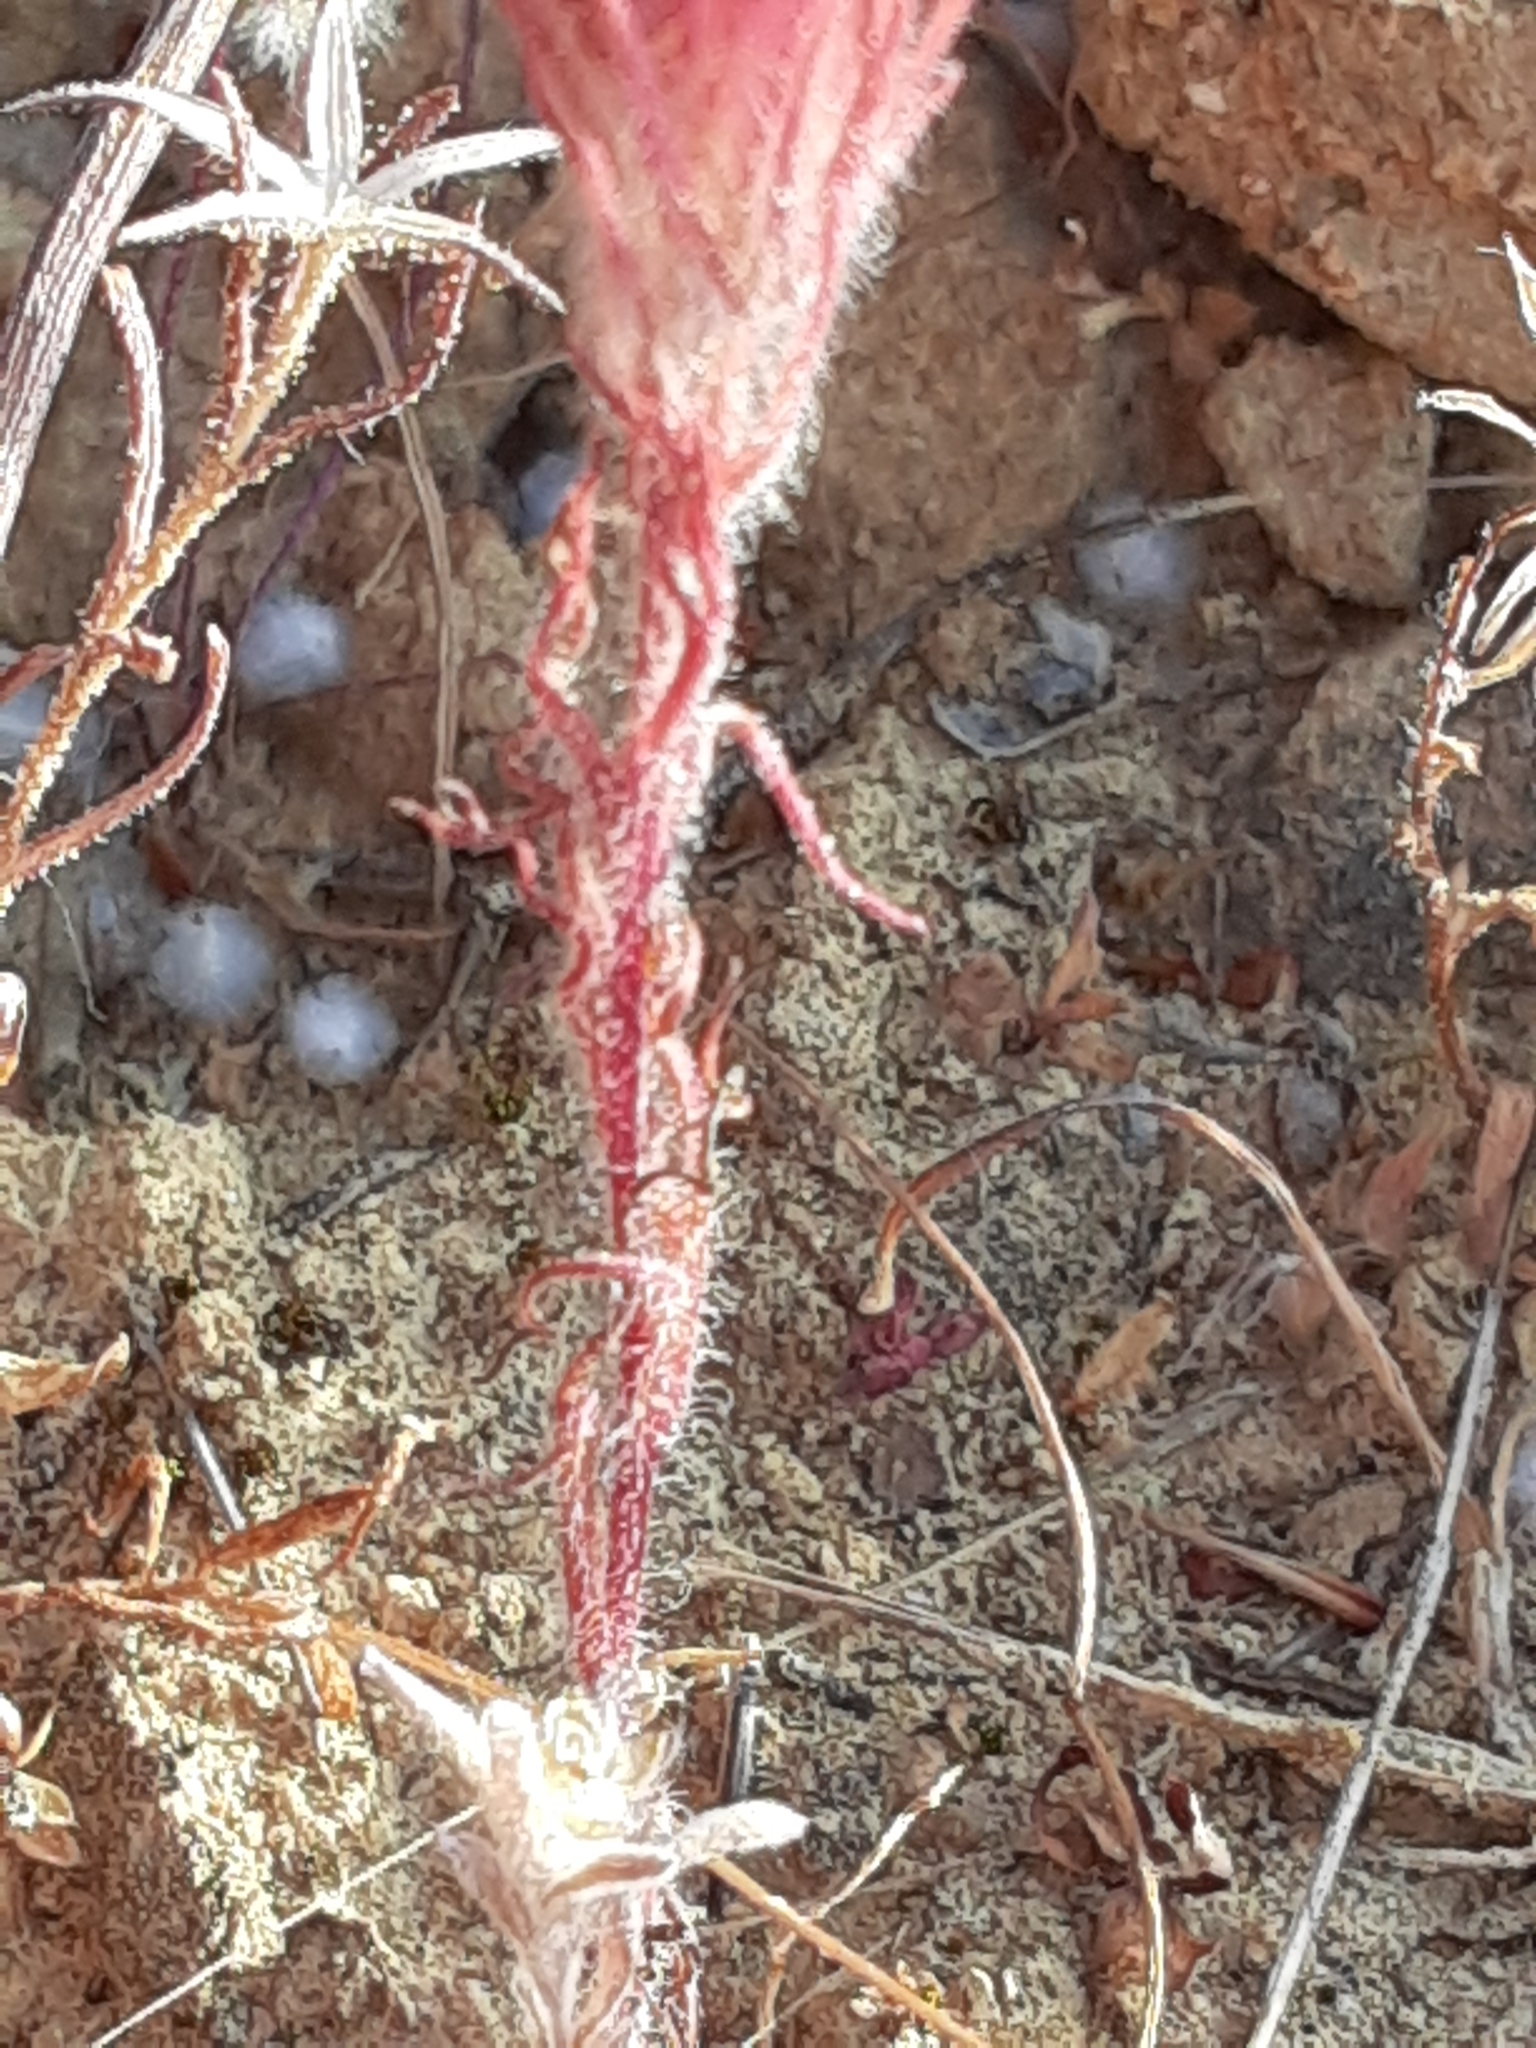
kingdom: Plantae
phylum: Tracheophyta
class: Magnoliopsida
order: Lamiales
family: Orobanchaceae
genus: Castilleja
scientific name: Castilleja exserta
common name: Purple owl-clover
